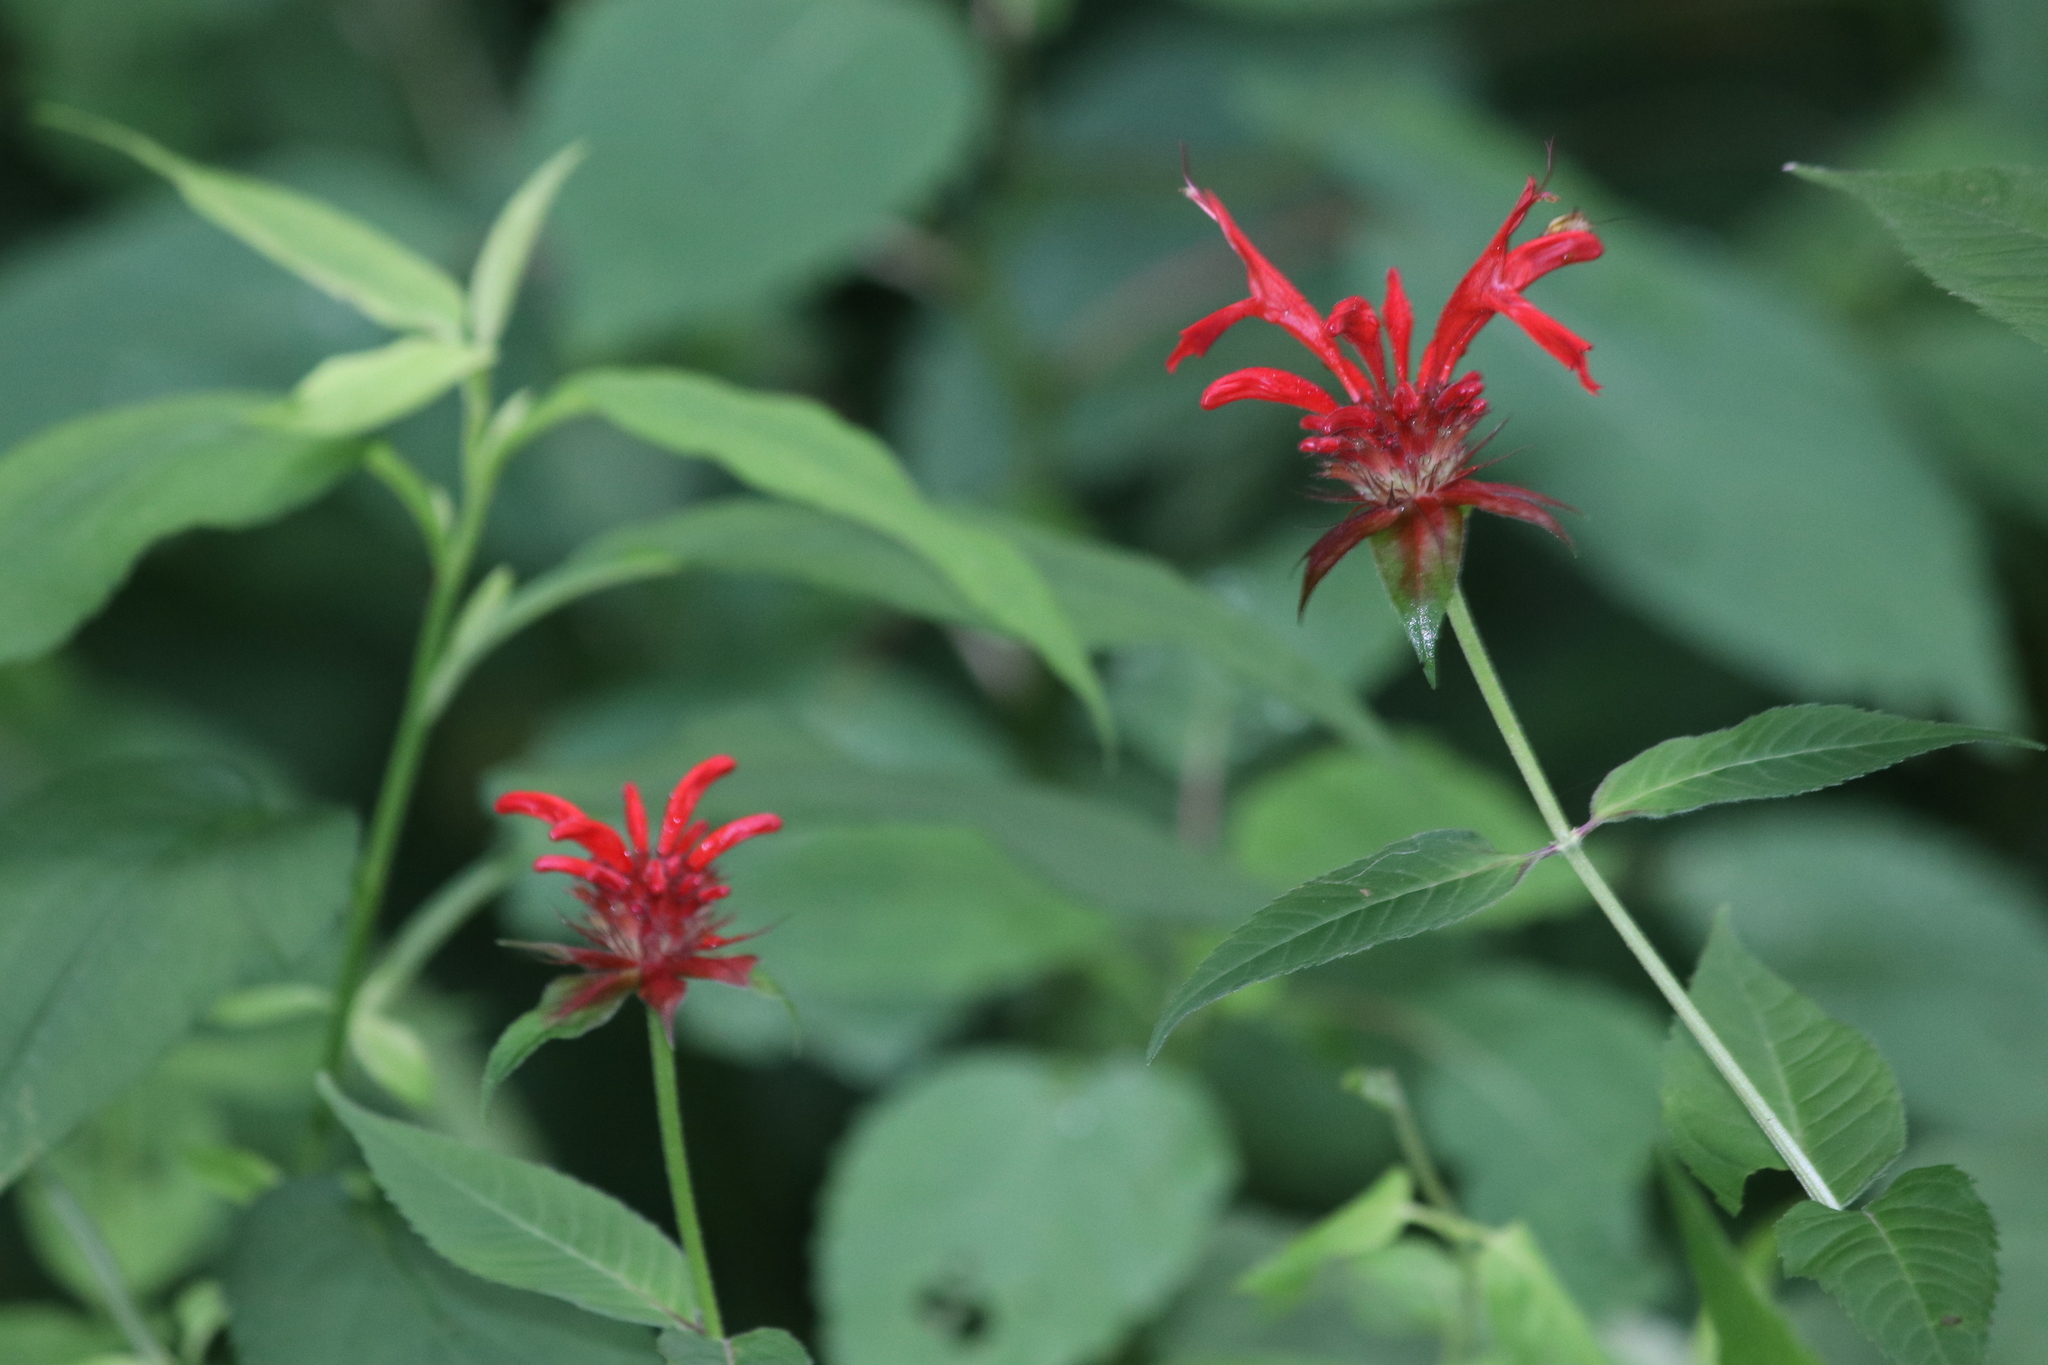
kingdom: Plantae
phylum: Tracheophyta
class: Magnoliopsida
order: Lamiales
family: Lamiaceae
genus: Monarda
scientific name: Monarda didyma
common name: Beebalm
